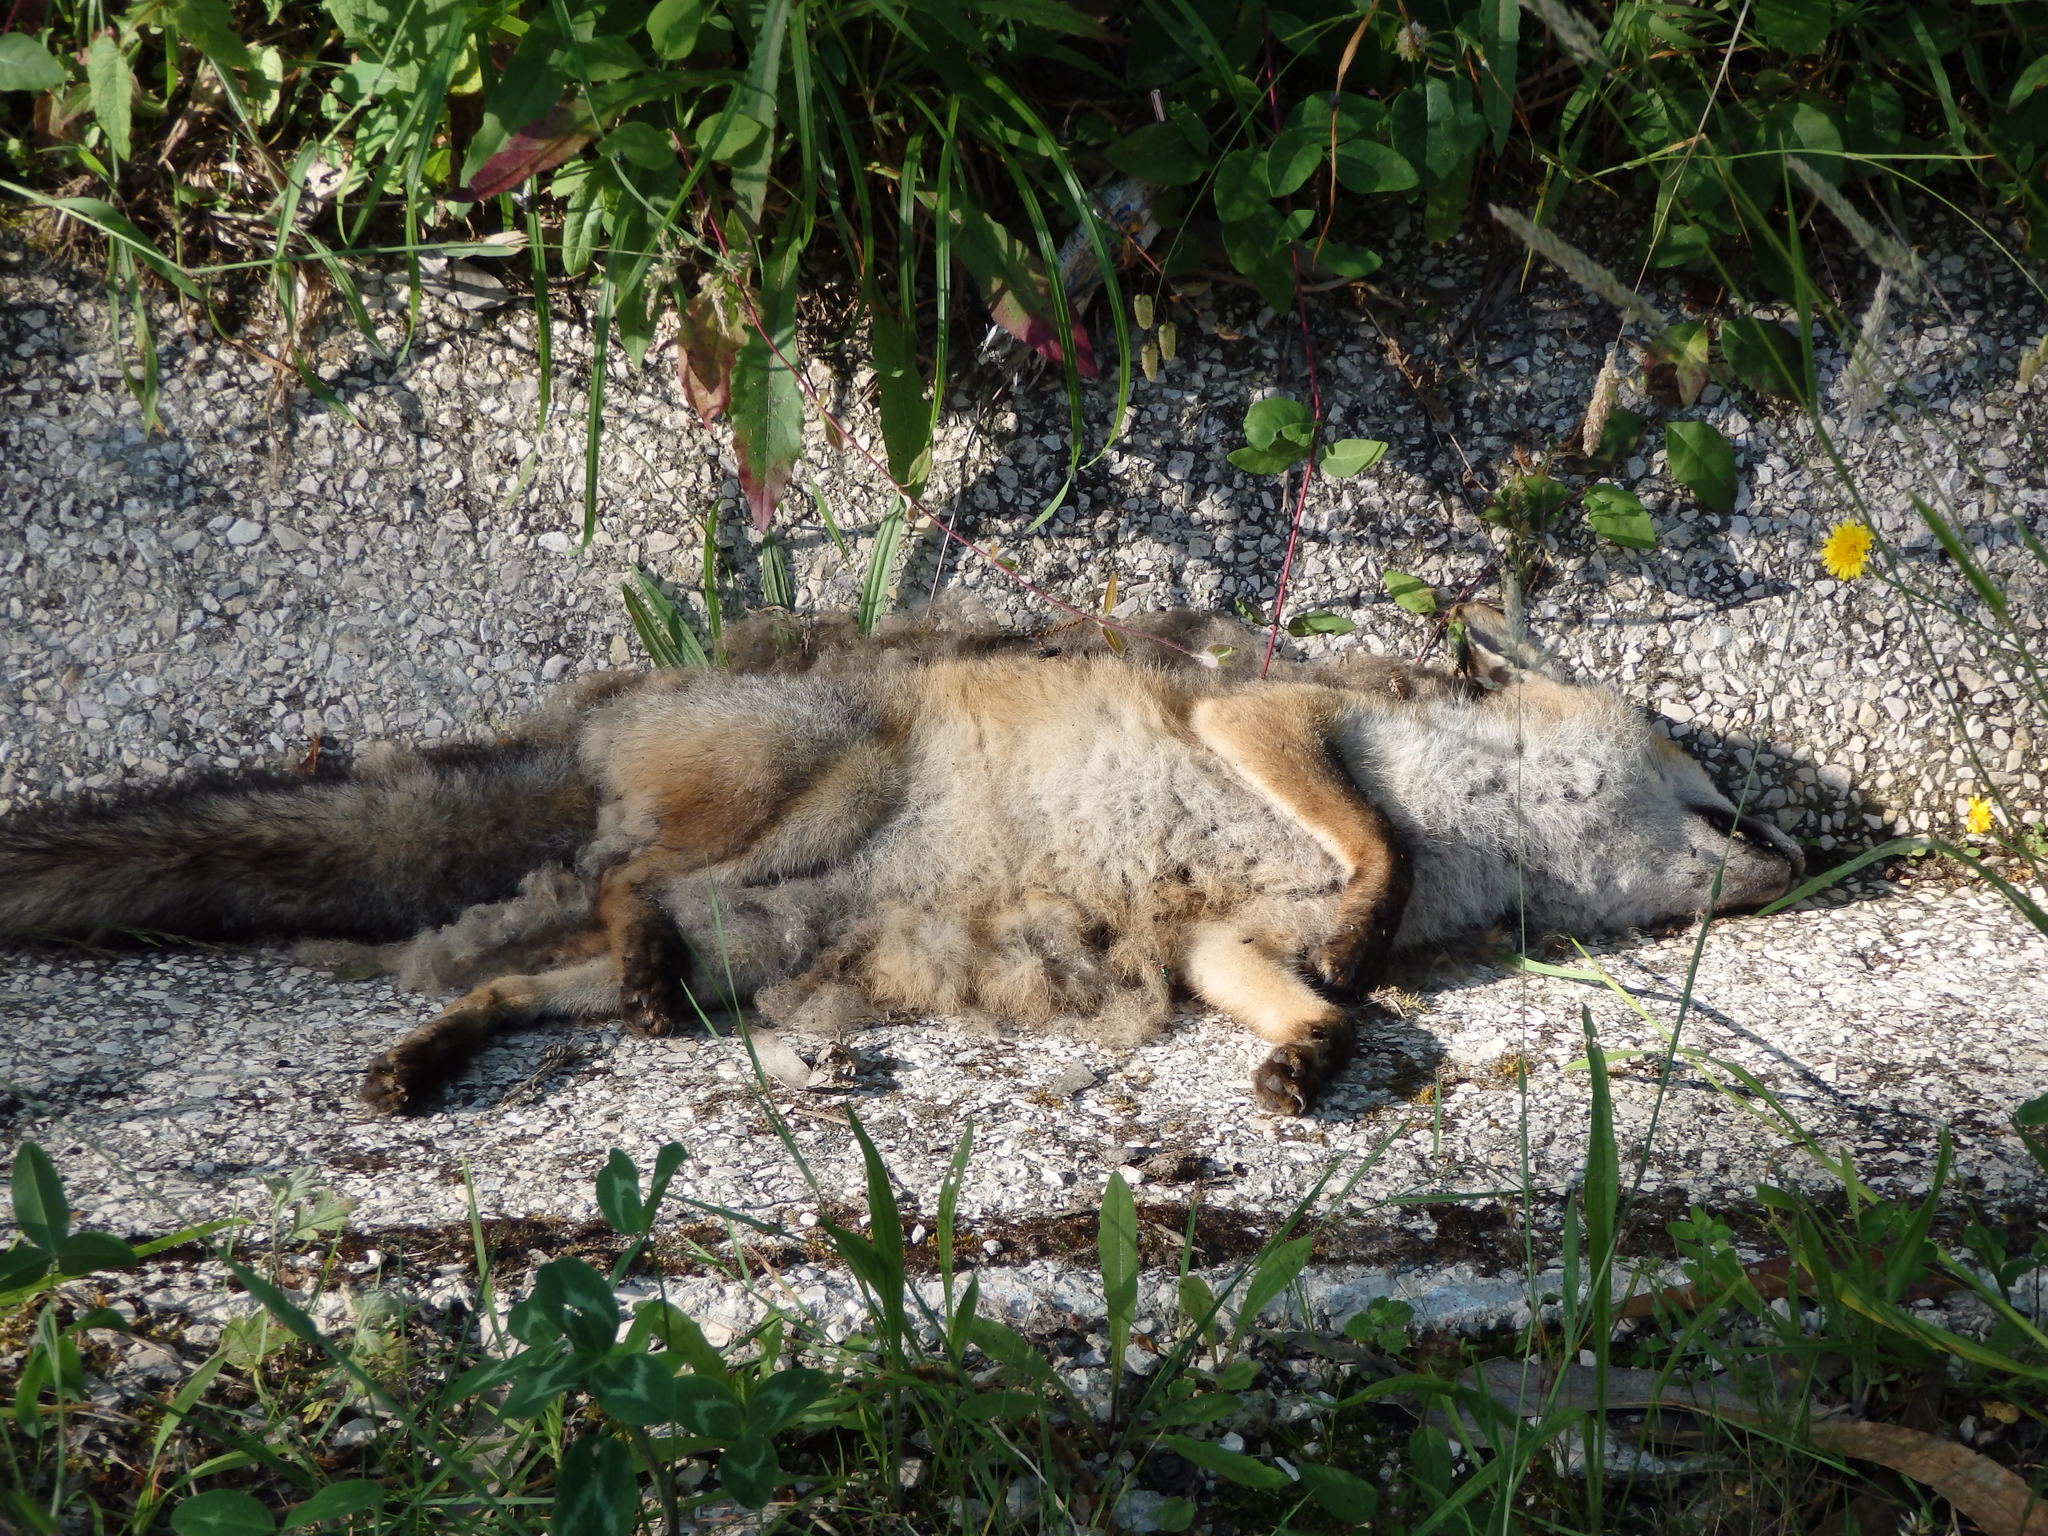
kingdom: Animalia
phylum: Chordata
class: Mammalia
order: Carnivora
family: Canidae
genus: Vulpes
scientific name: Vulpes vulpes
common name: Red fox
